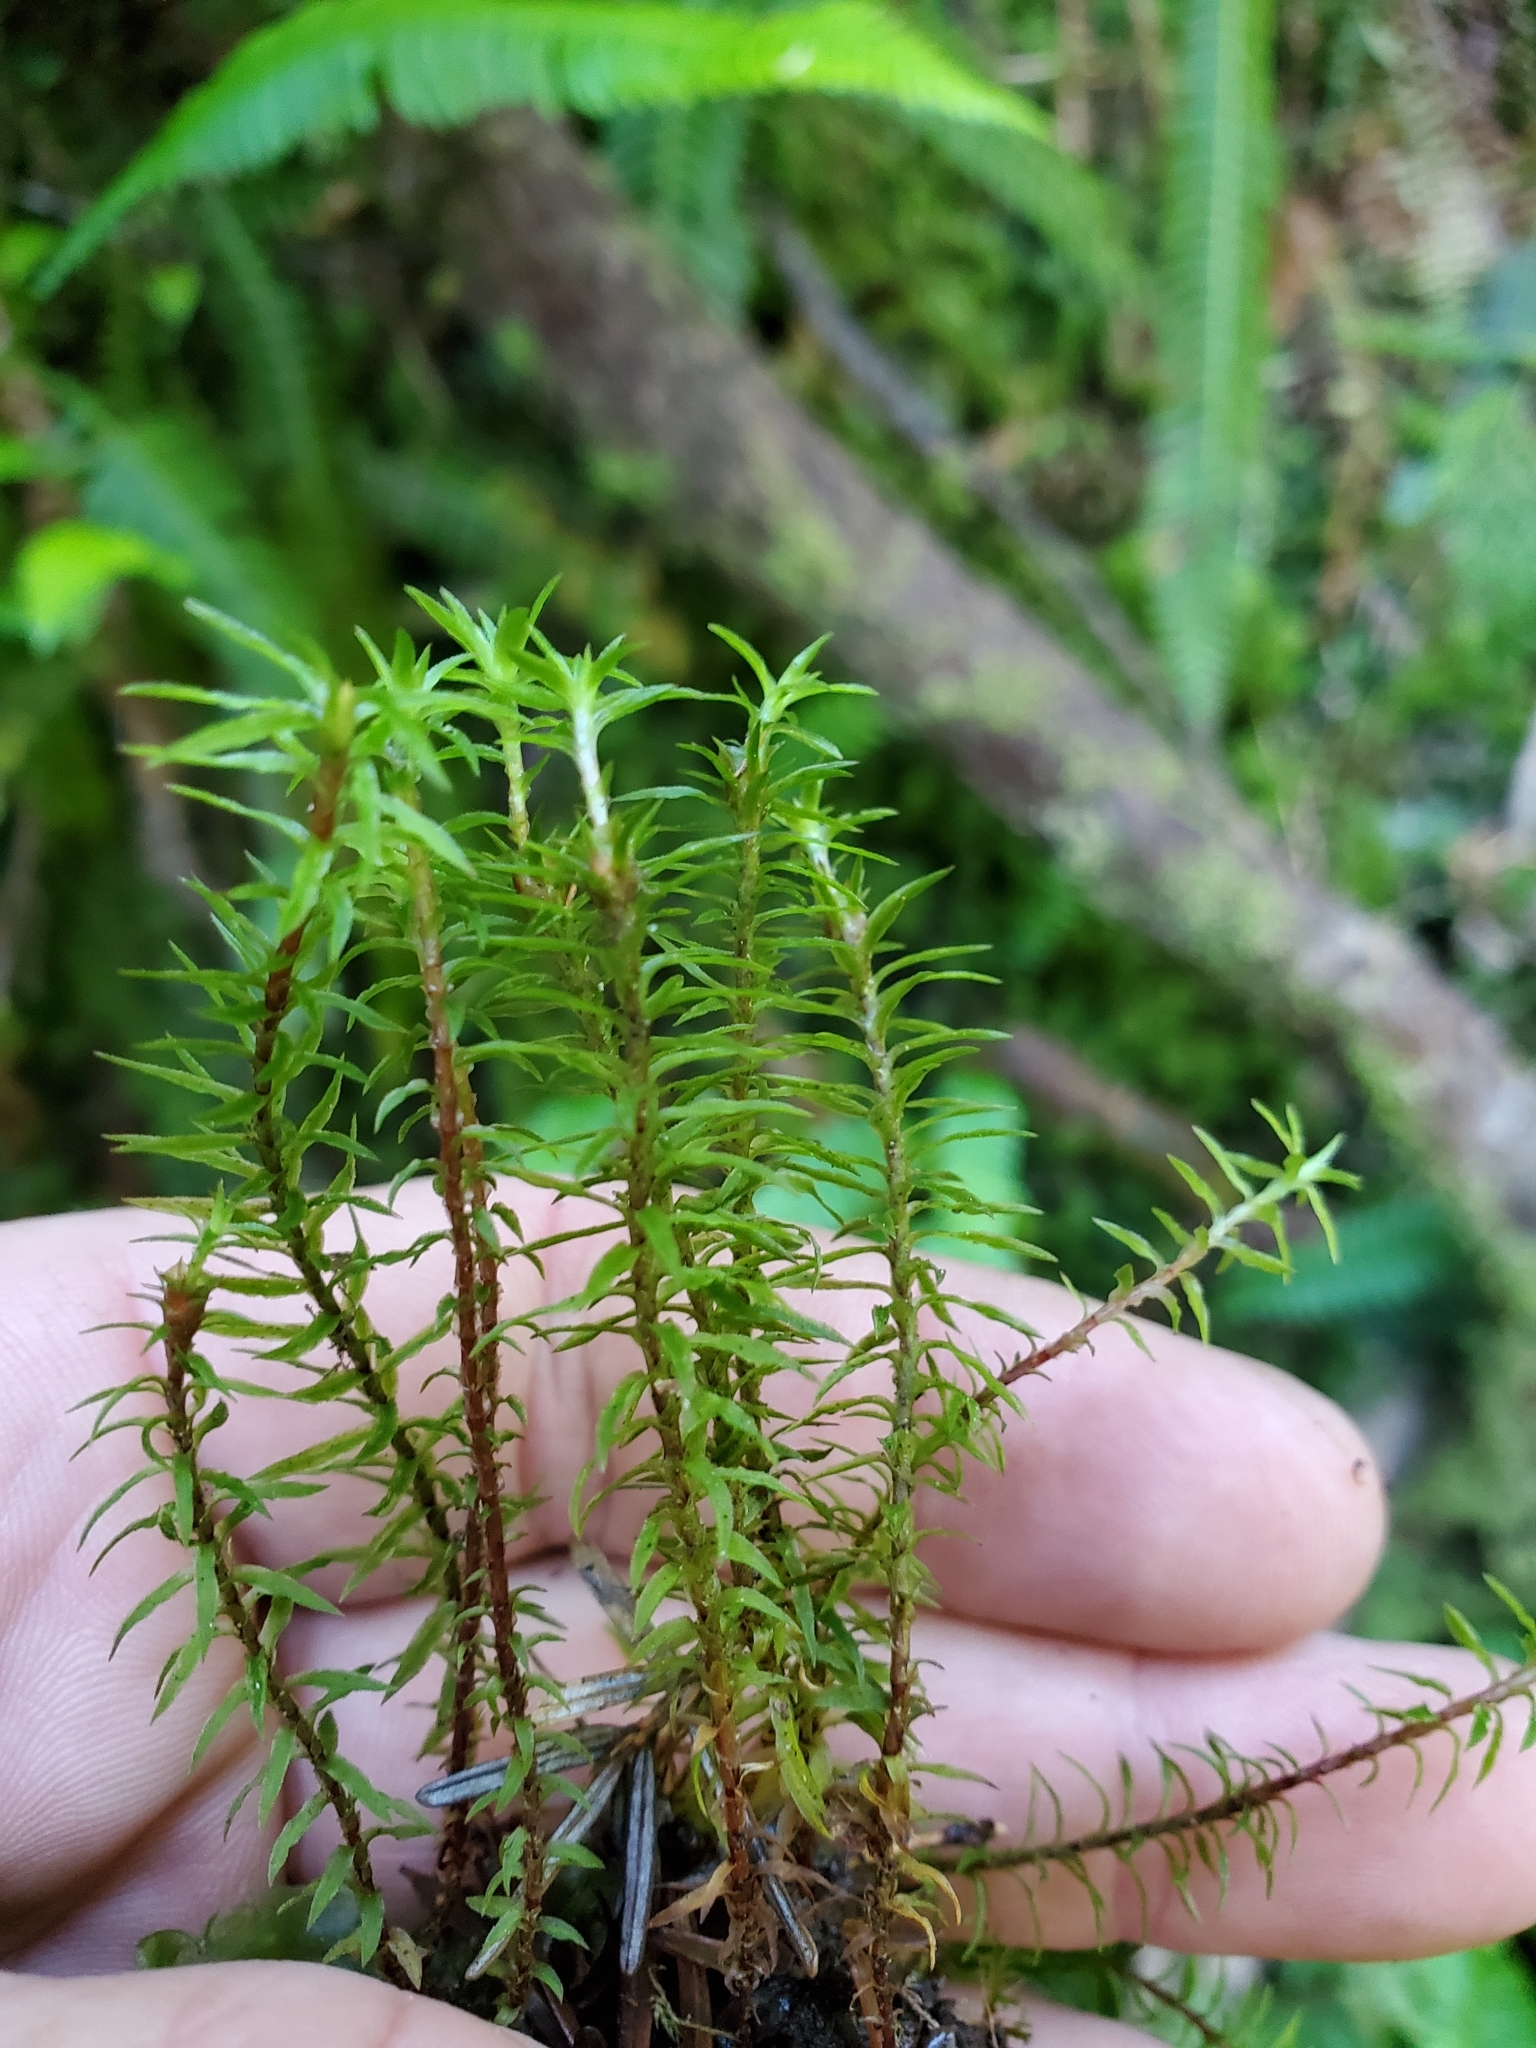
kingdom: Plantae
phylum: Bryophyta
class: Polytrichopsida
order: Polytrichales
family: Polytrichaceae
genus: Pogonatum
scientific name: Pogonatum contortum
